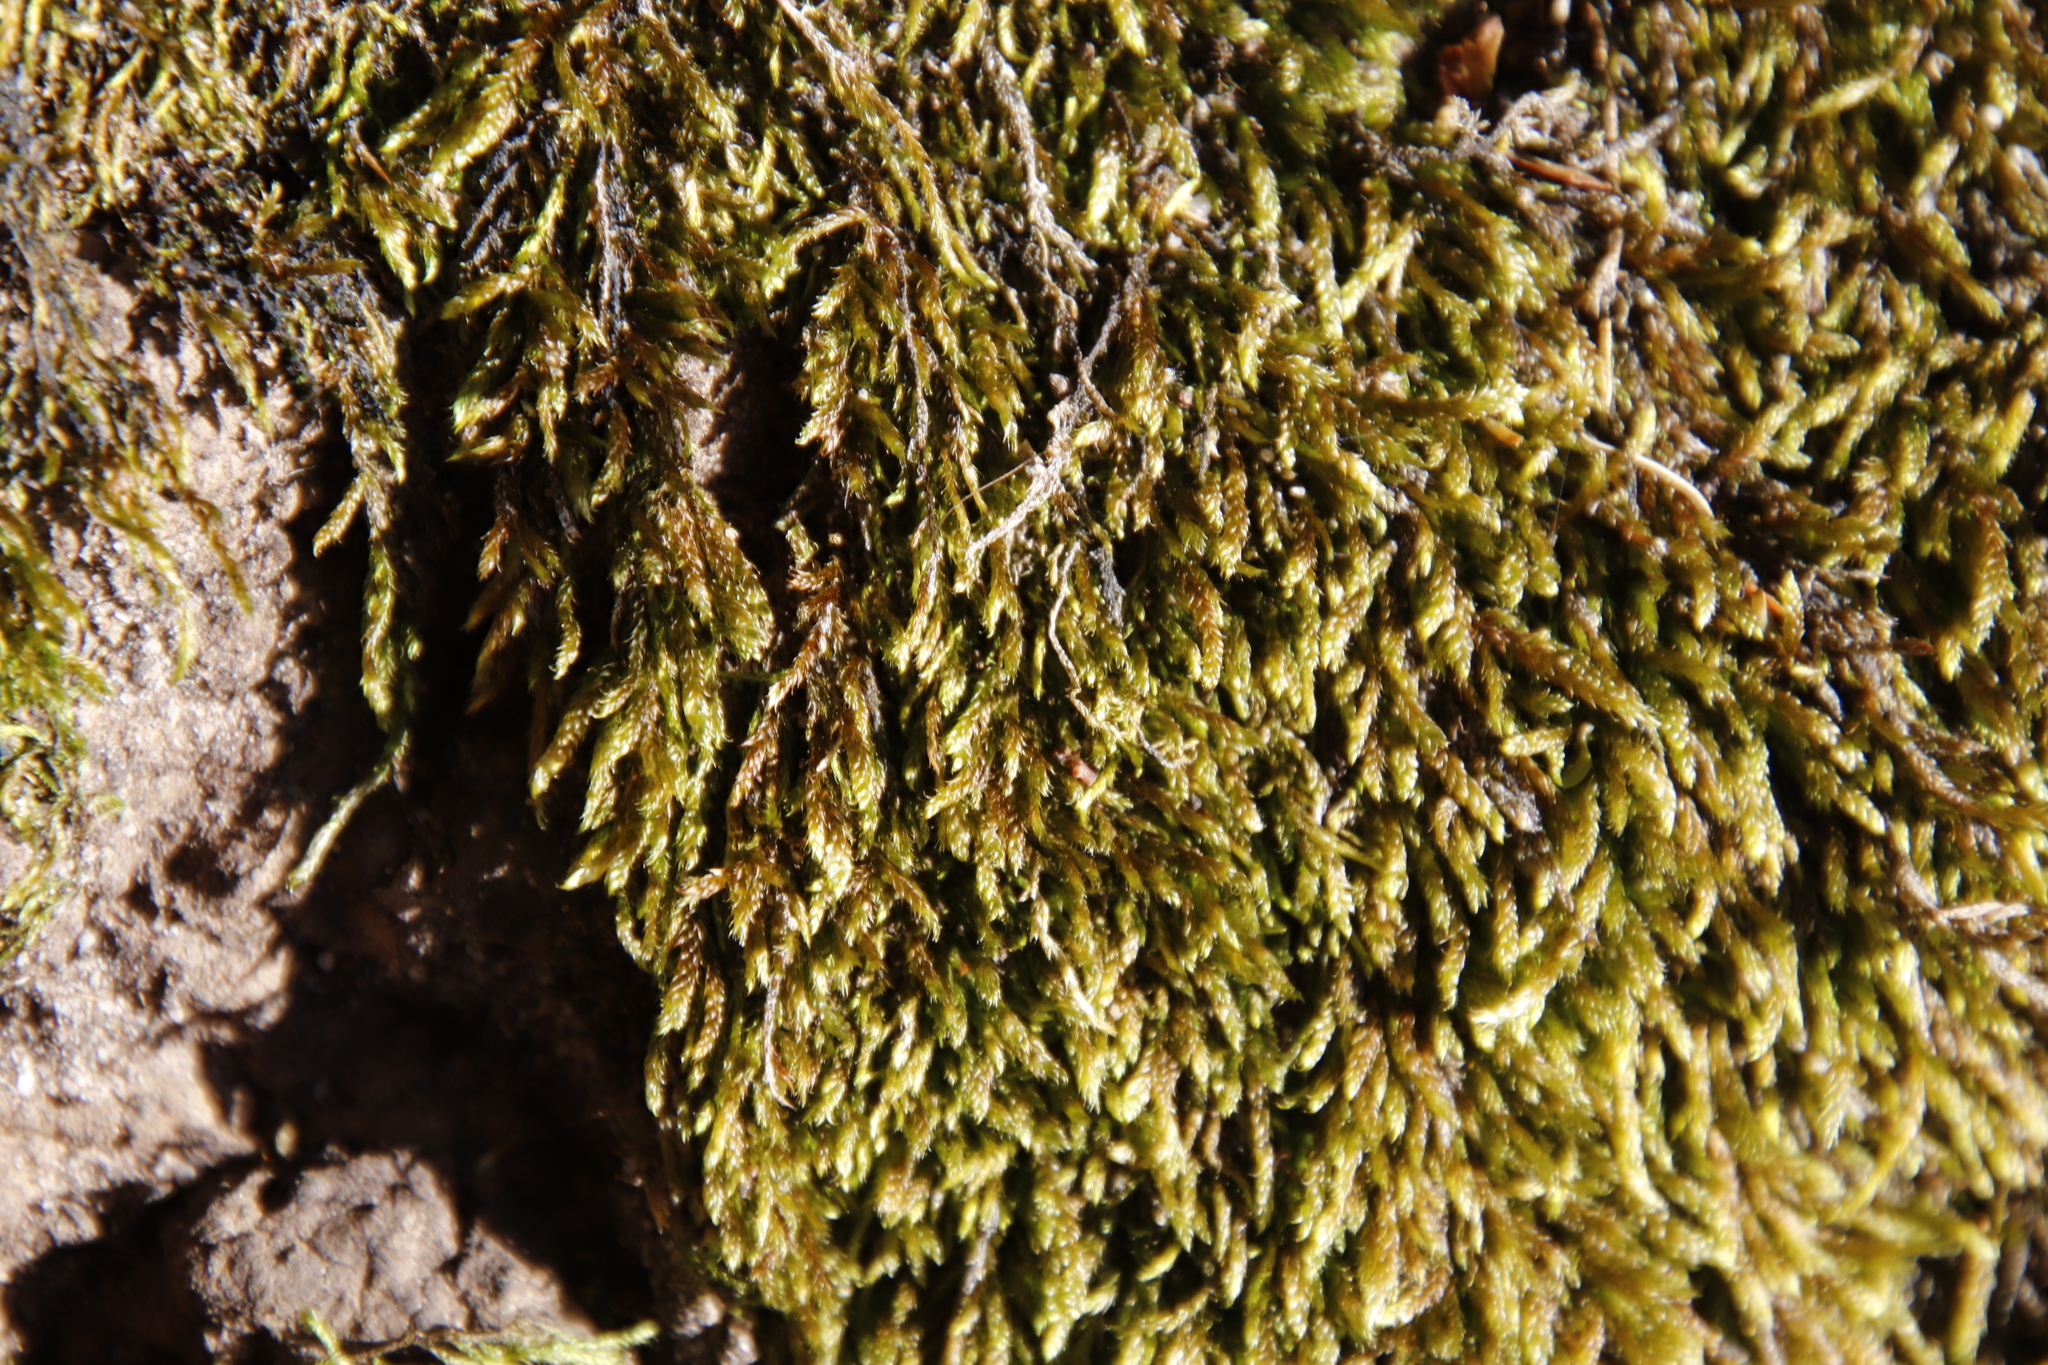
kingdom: Plantae
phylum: Bryophyta
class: Bryopsida
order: Hypnales
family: Hypnaceae
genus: Hypnum
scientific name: Hypnum cupressiforme
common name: Cypress-leaved plait-moss
